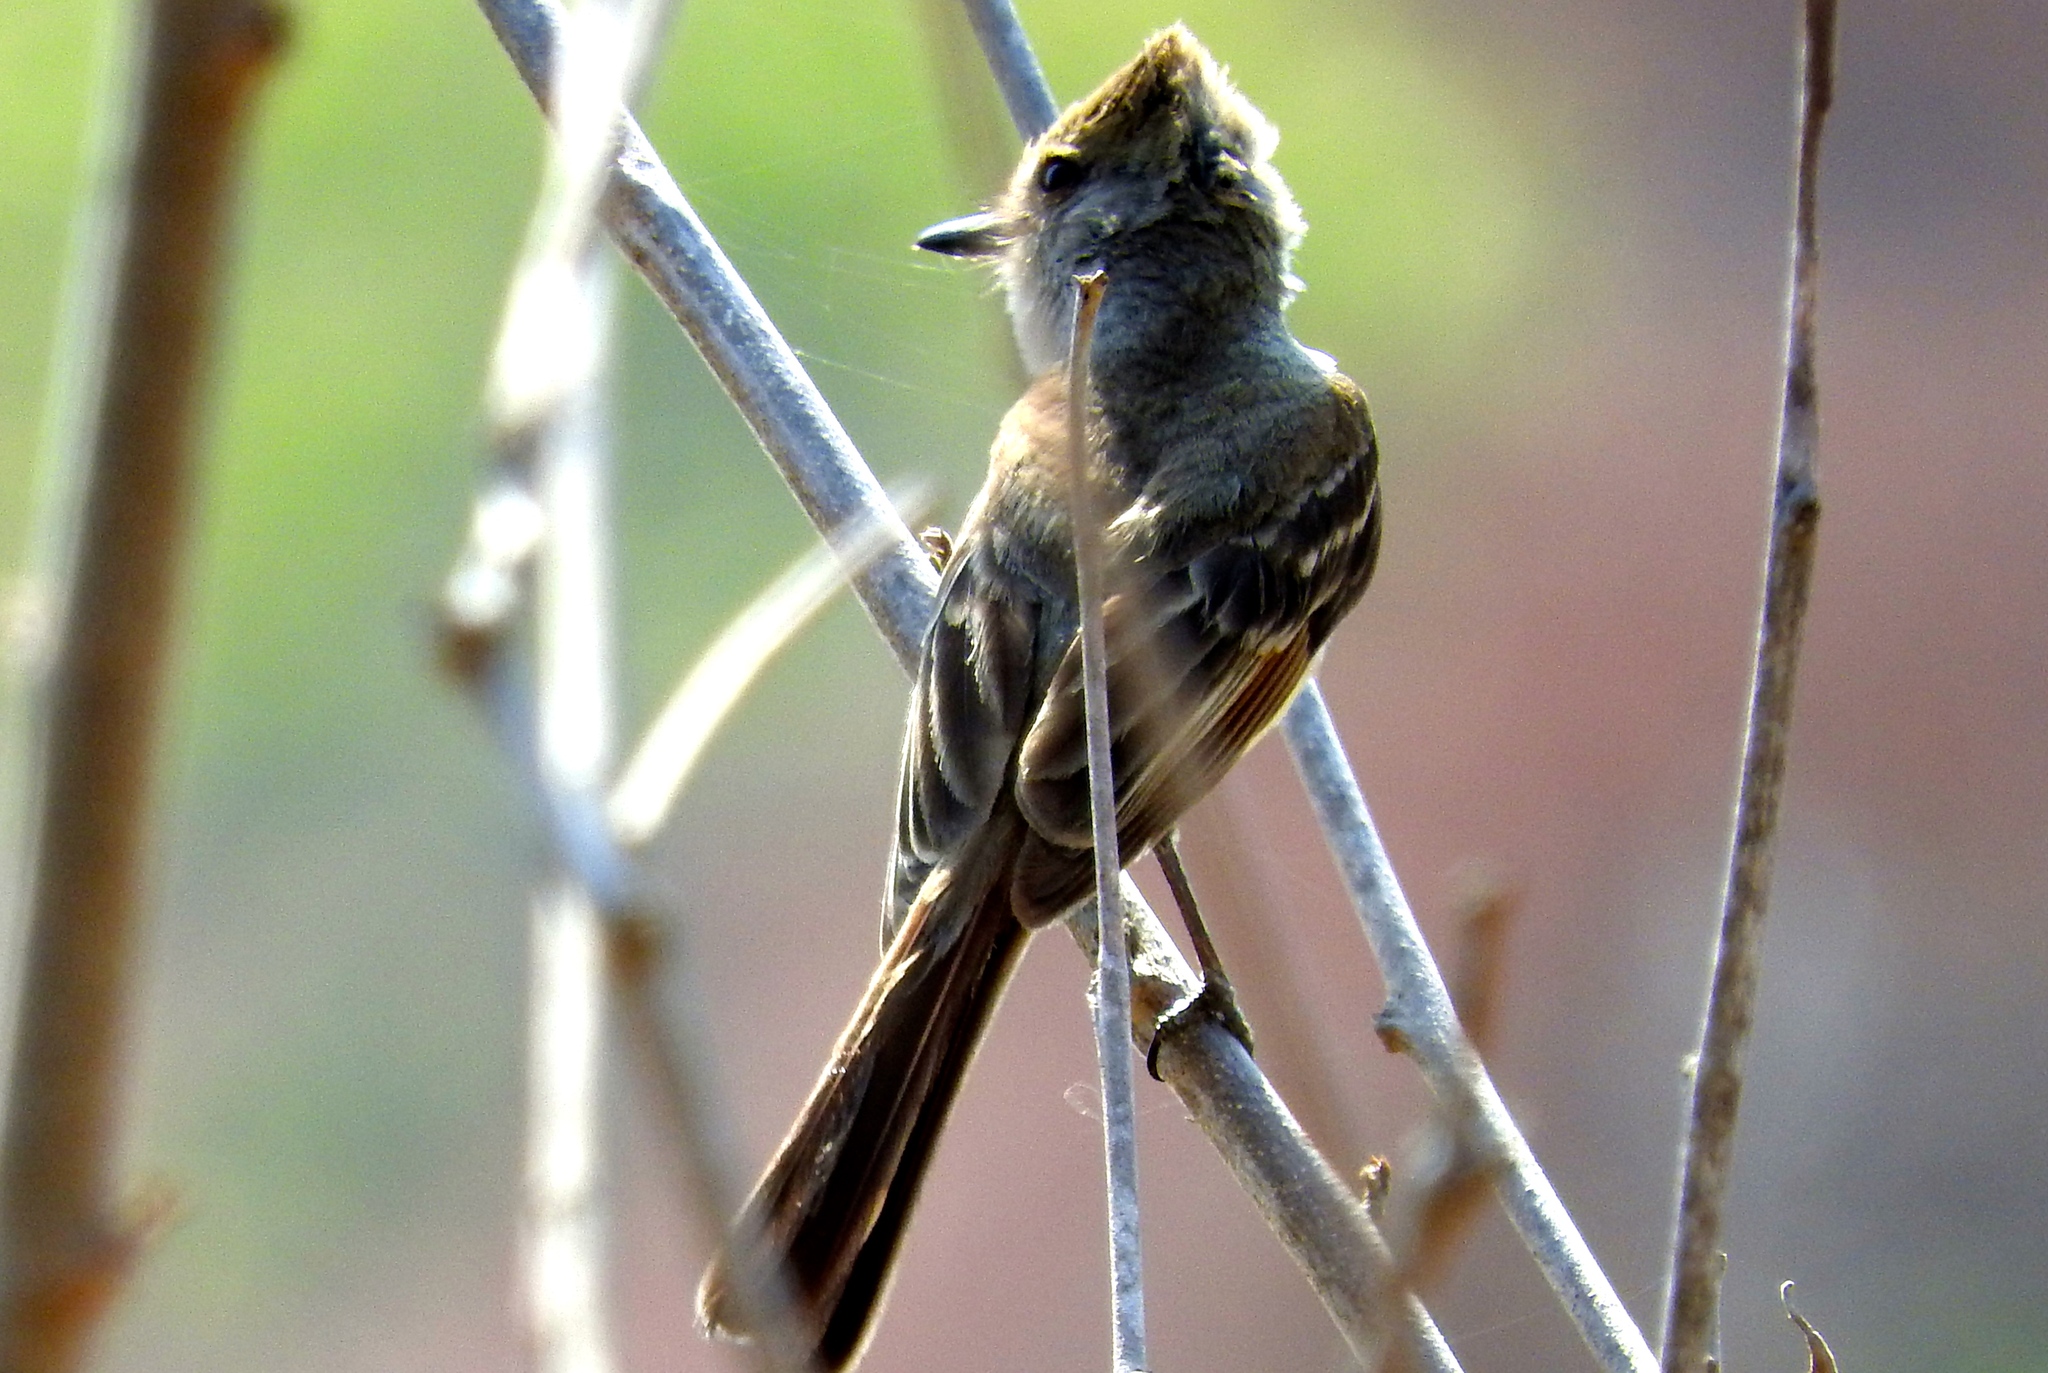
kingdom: Animalia
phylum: Chordata
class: Aves
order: Passeriformes
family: Tyrannidae
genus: Myiarchus
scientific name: Myiarchus
